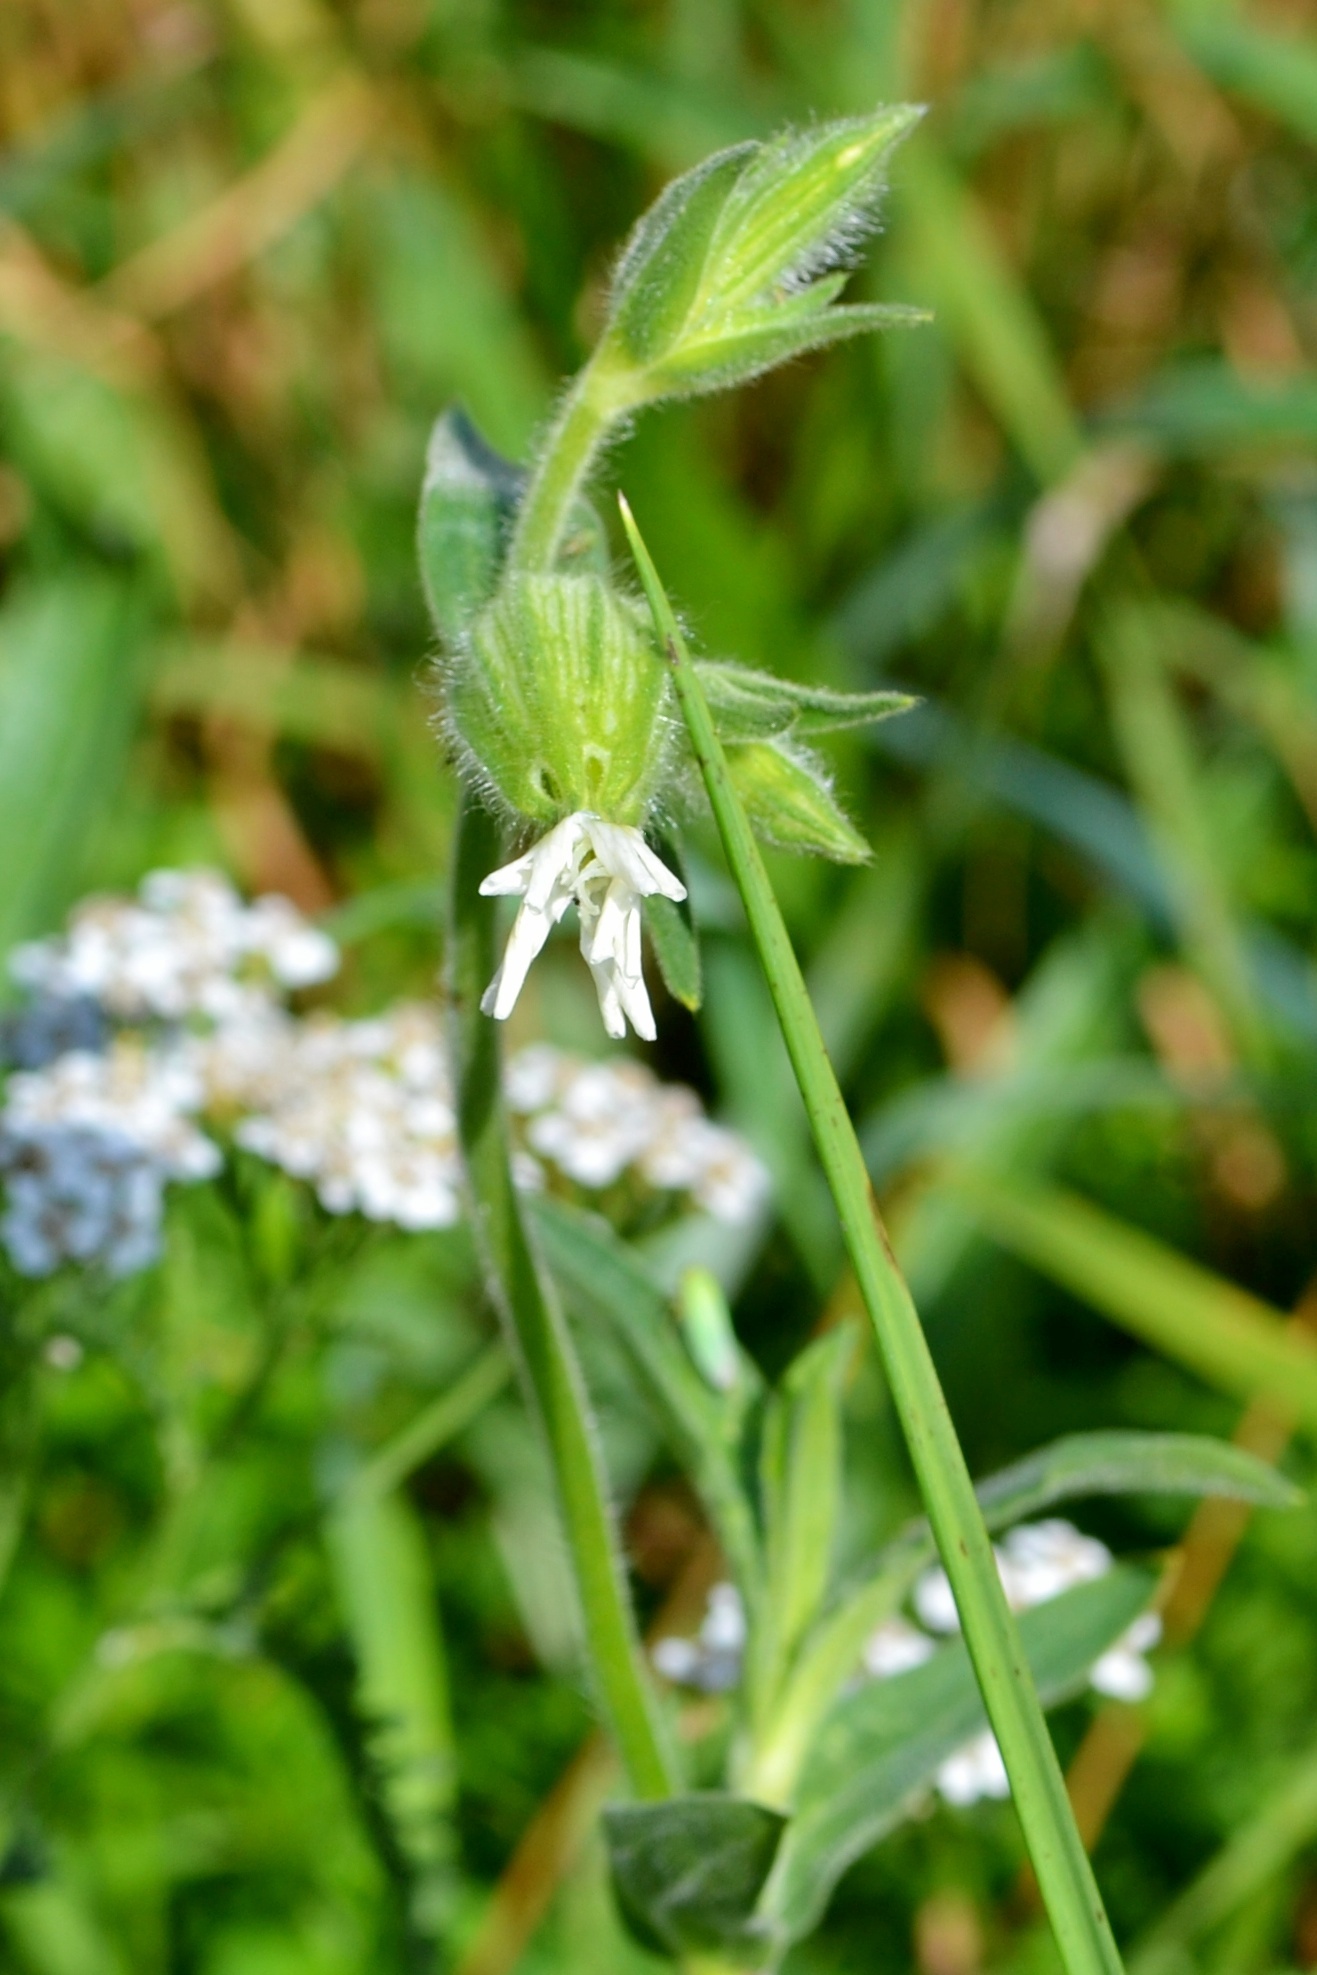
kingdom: Plantae
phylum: Tracheophyta
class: Magnoliopsida
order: Caryophyllales
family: Caryophyllaceae
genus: Silene
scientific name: Silene latifolia
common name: White campion
